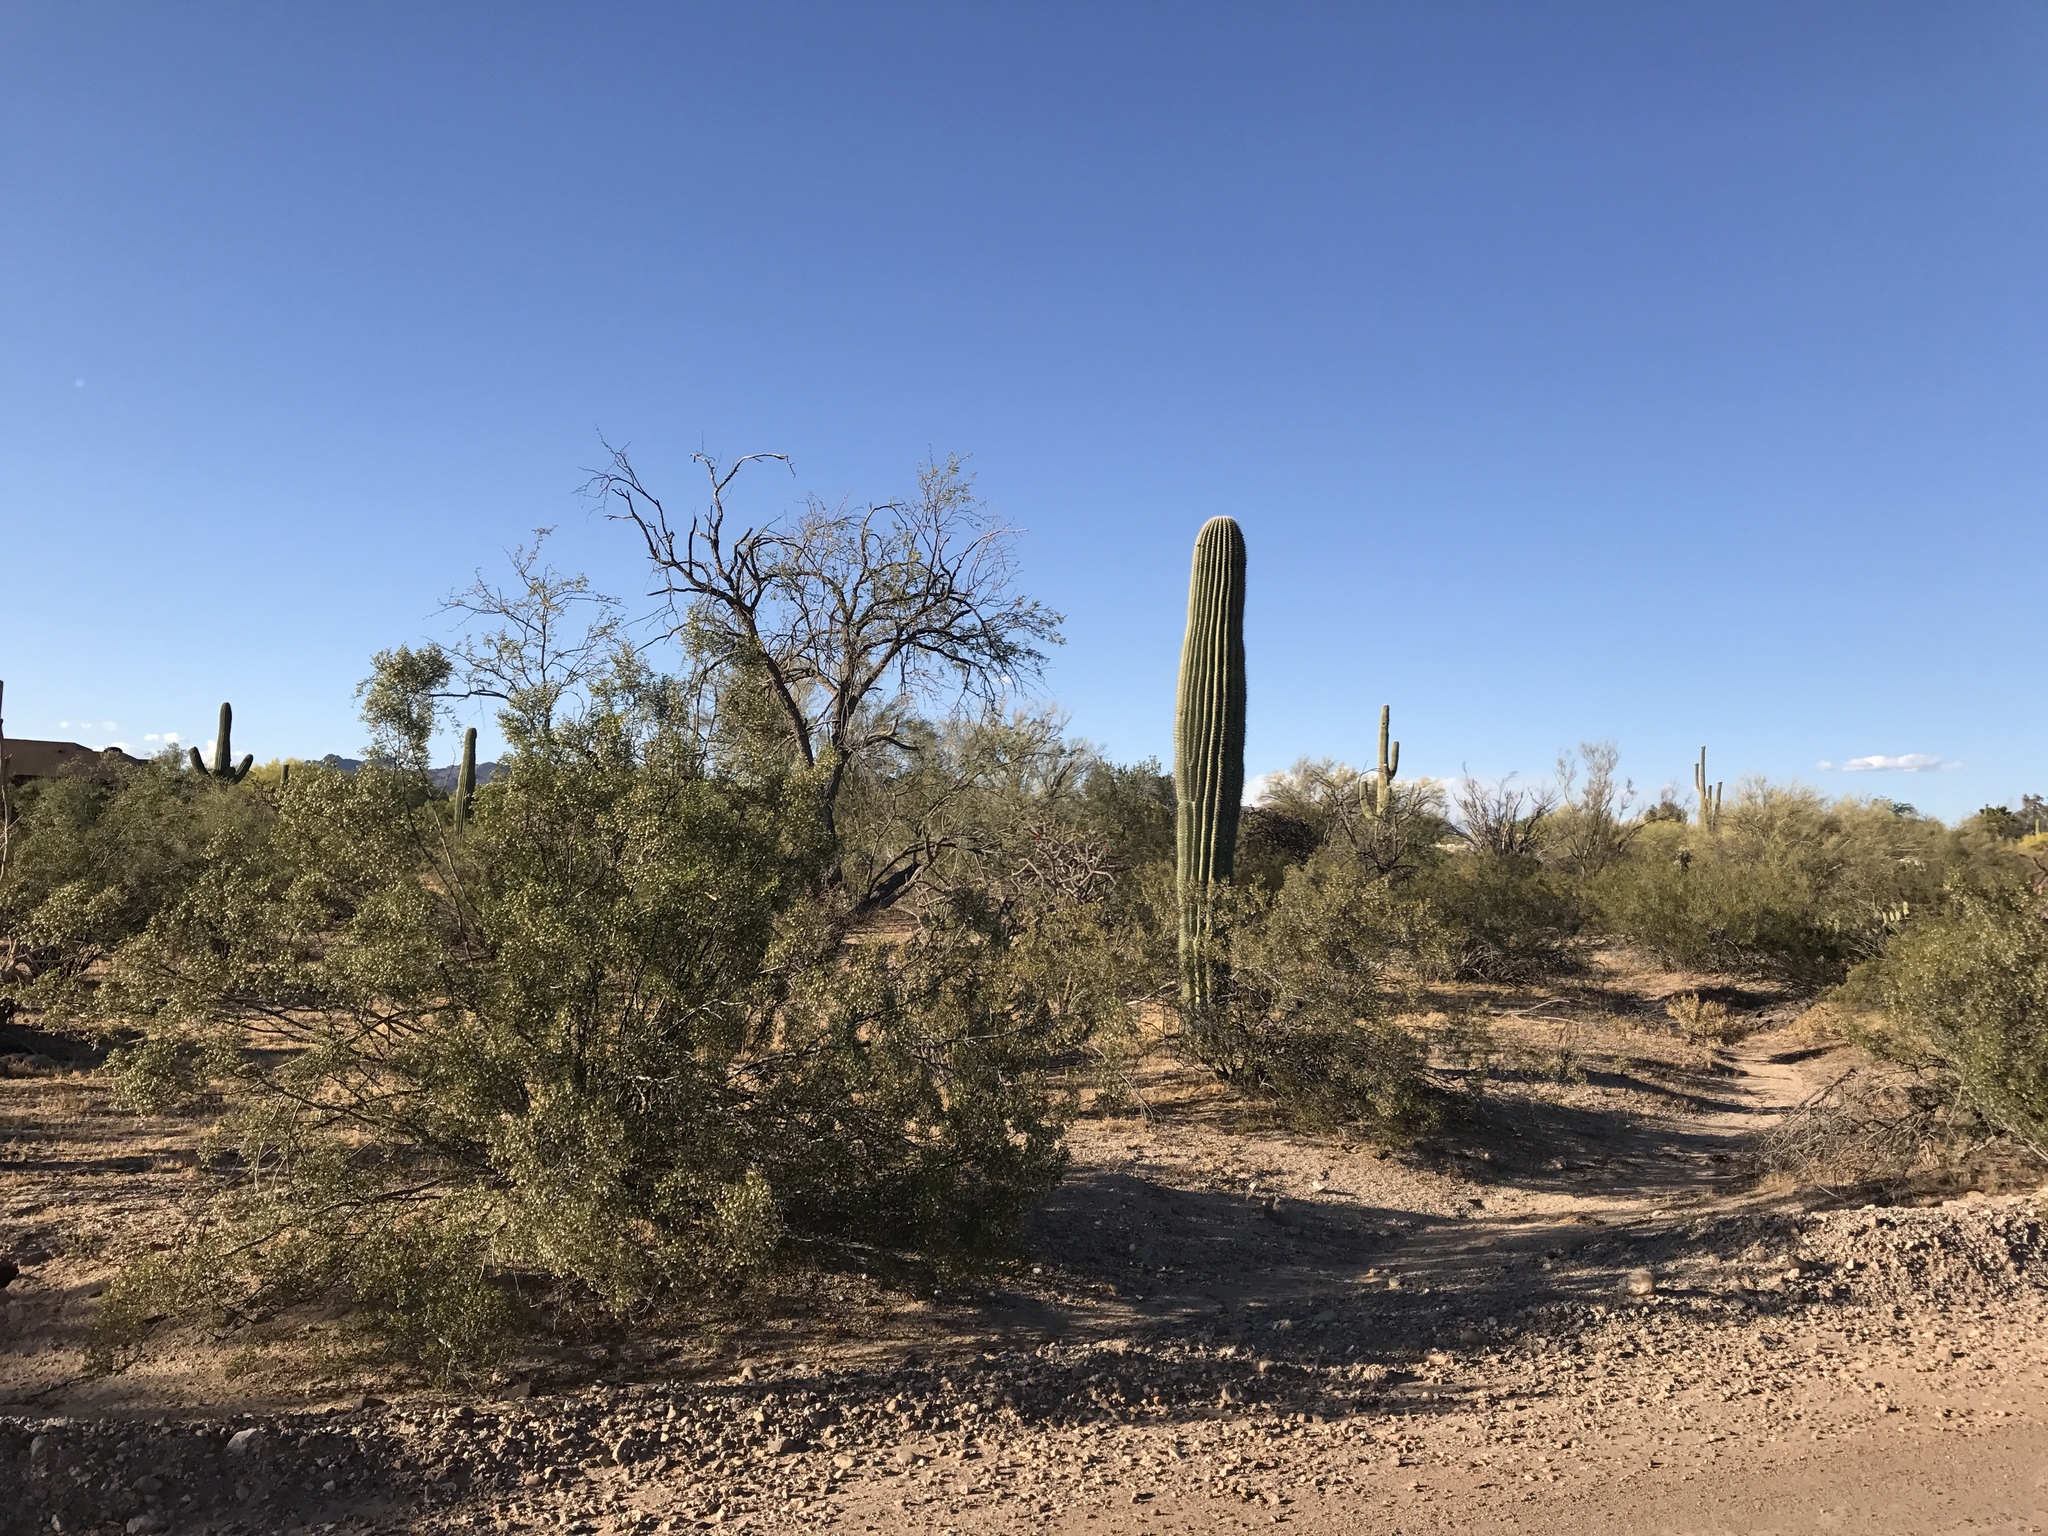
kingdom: Plantae
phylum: Tracheophyta
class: Magnoliopsida
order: Caryophyllales
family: Cactaceae
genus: Carnegiea
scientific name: Carnegiea gigantea
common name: Saguaro
